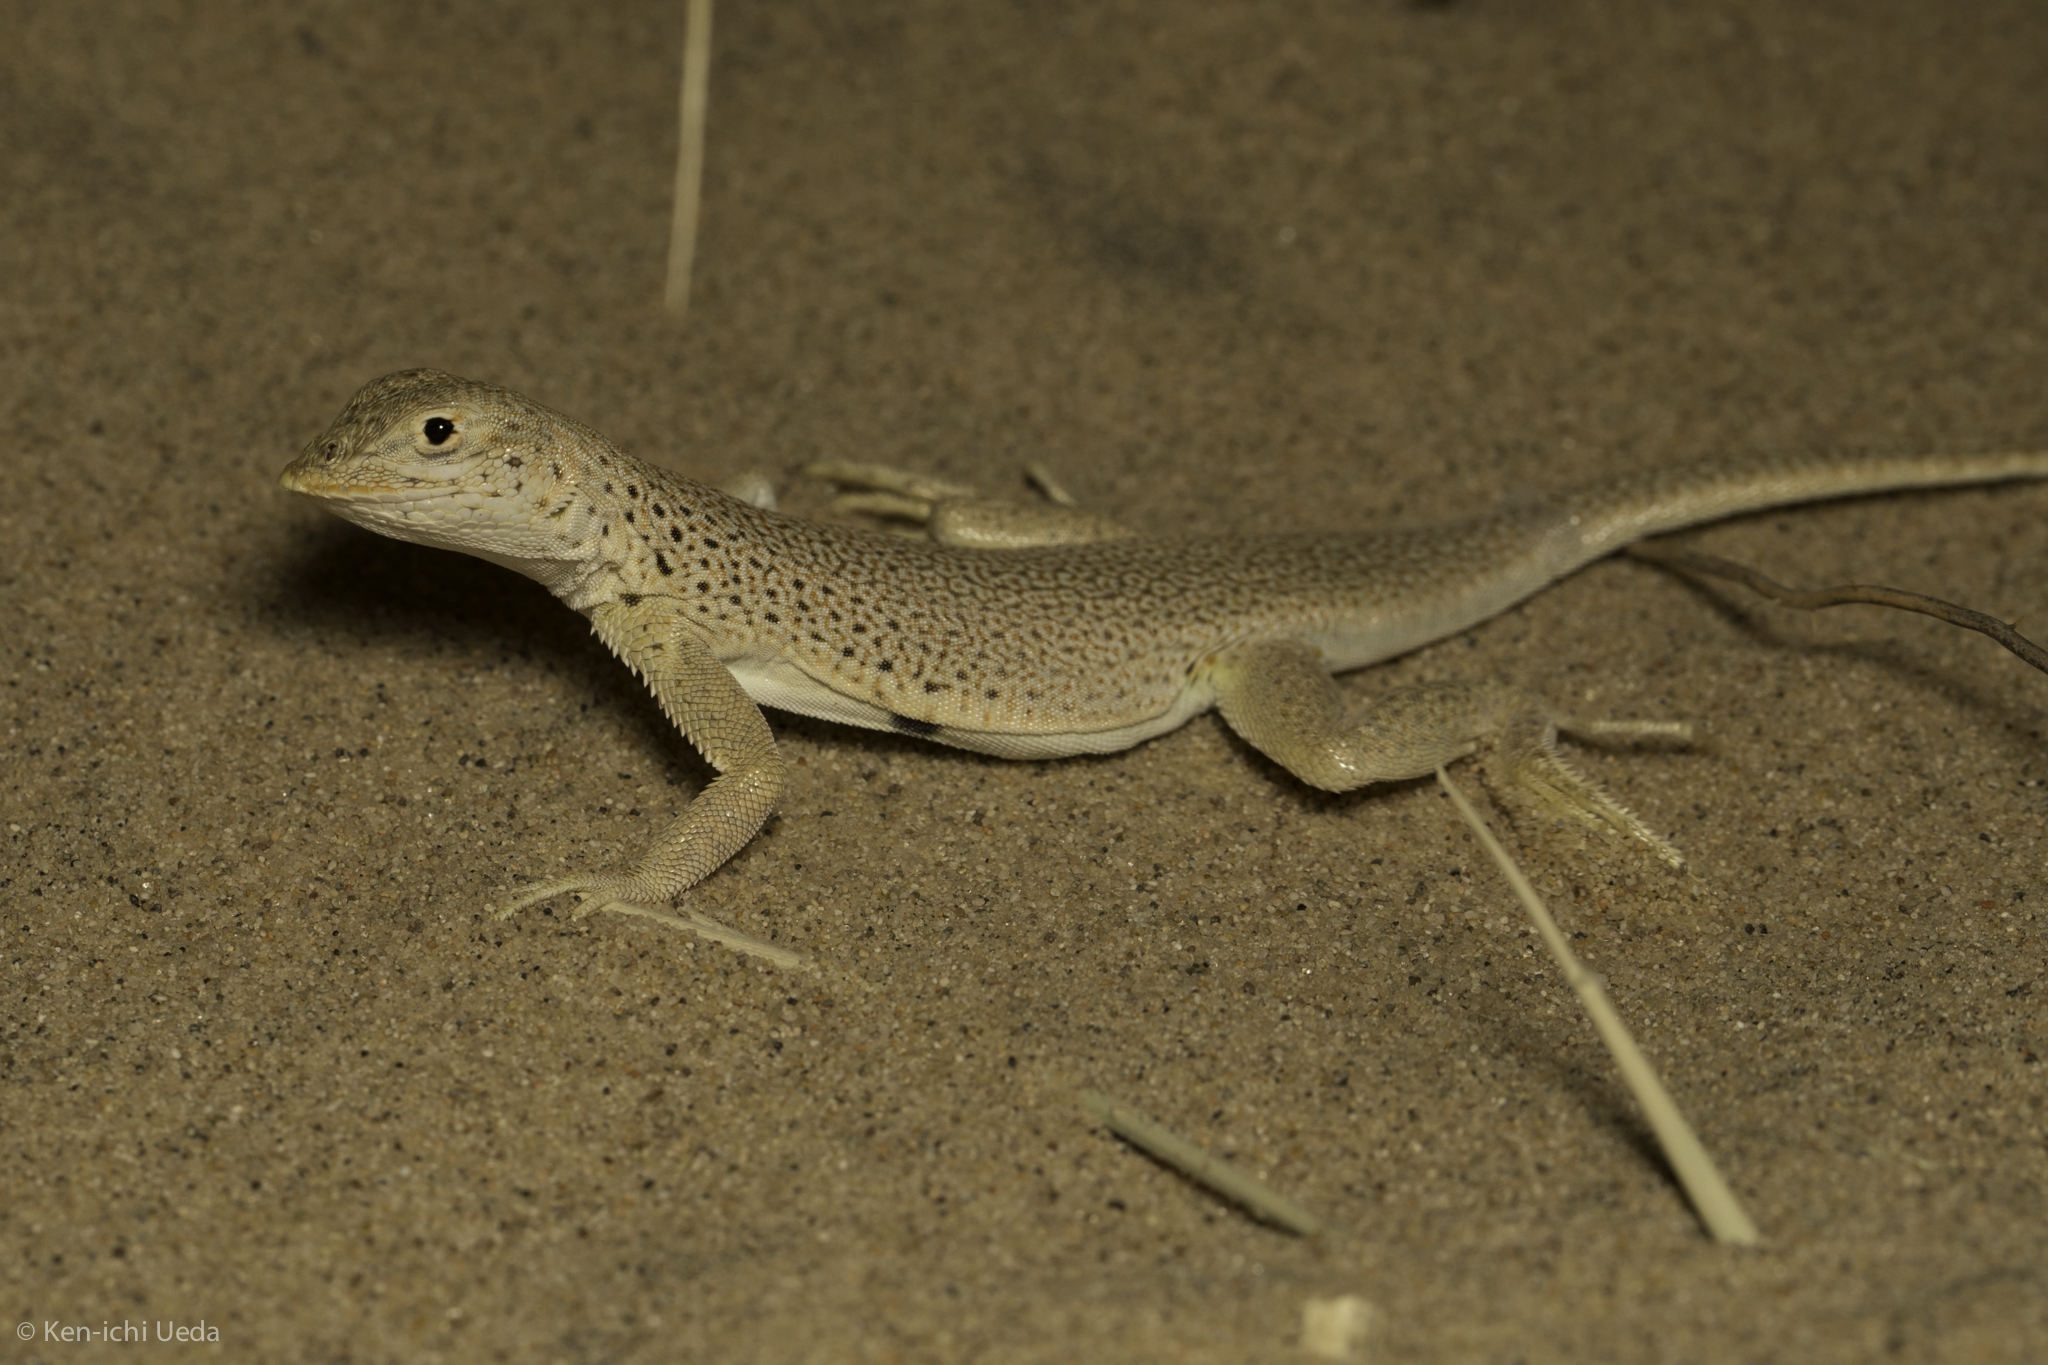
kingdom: Animalia
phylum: Chordata
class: Squamata
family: Phrynosomatidae
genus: Uma
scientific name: Uma scoparia
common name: Mojave fringe-toed lizard
